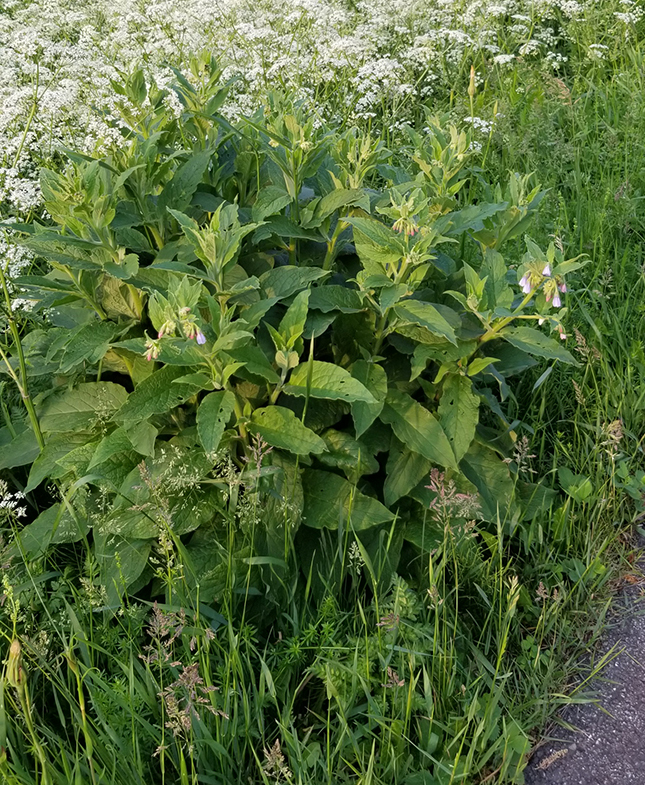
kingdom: Plantae
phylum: Tracheophyta
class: Magnoliopsida
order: Boraginales
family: Boraginaceae
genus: Symphytum
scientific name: Symphytum officinale
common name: Common comfrey
